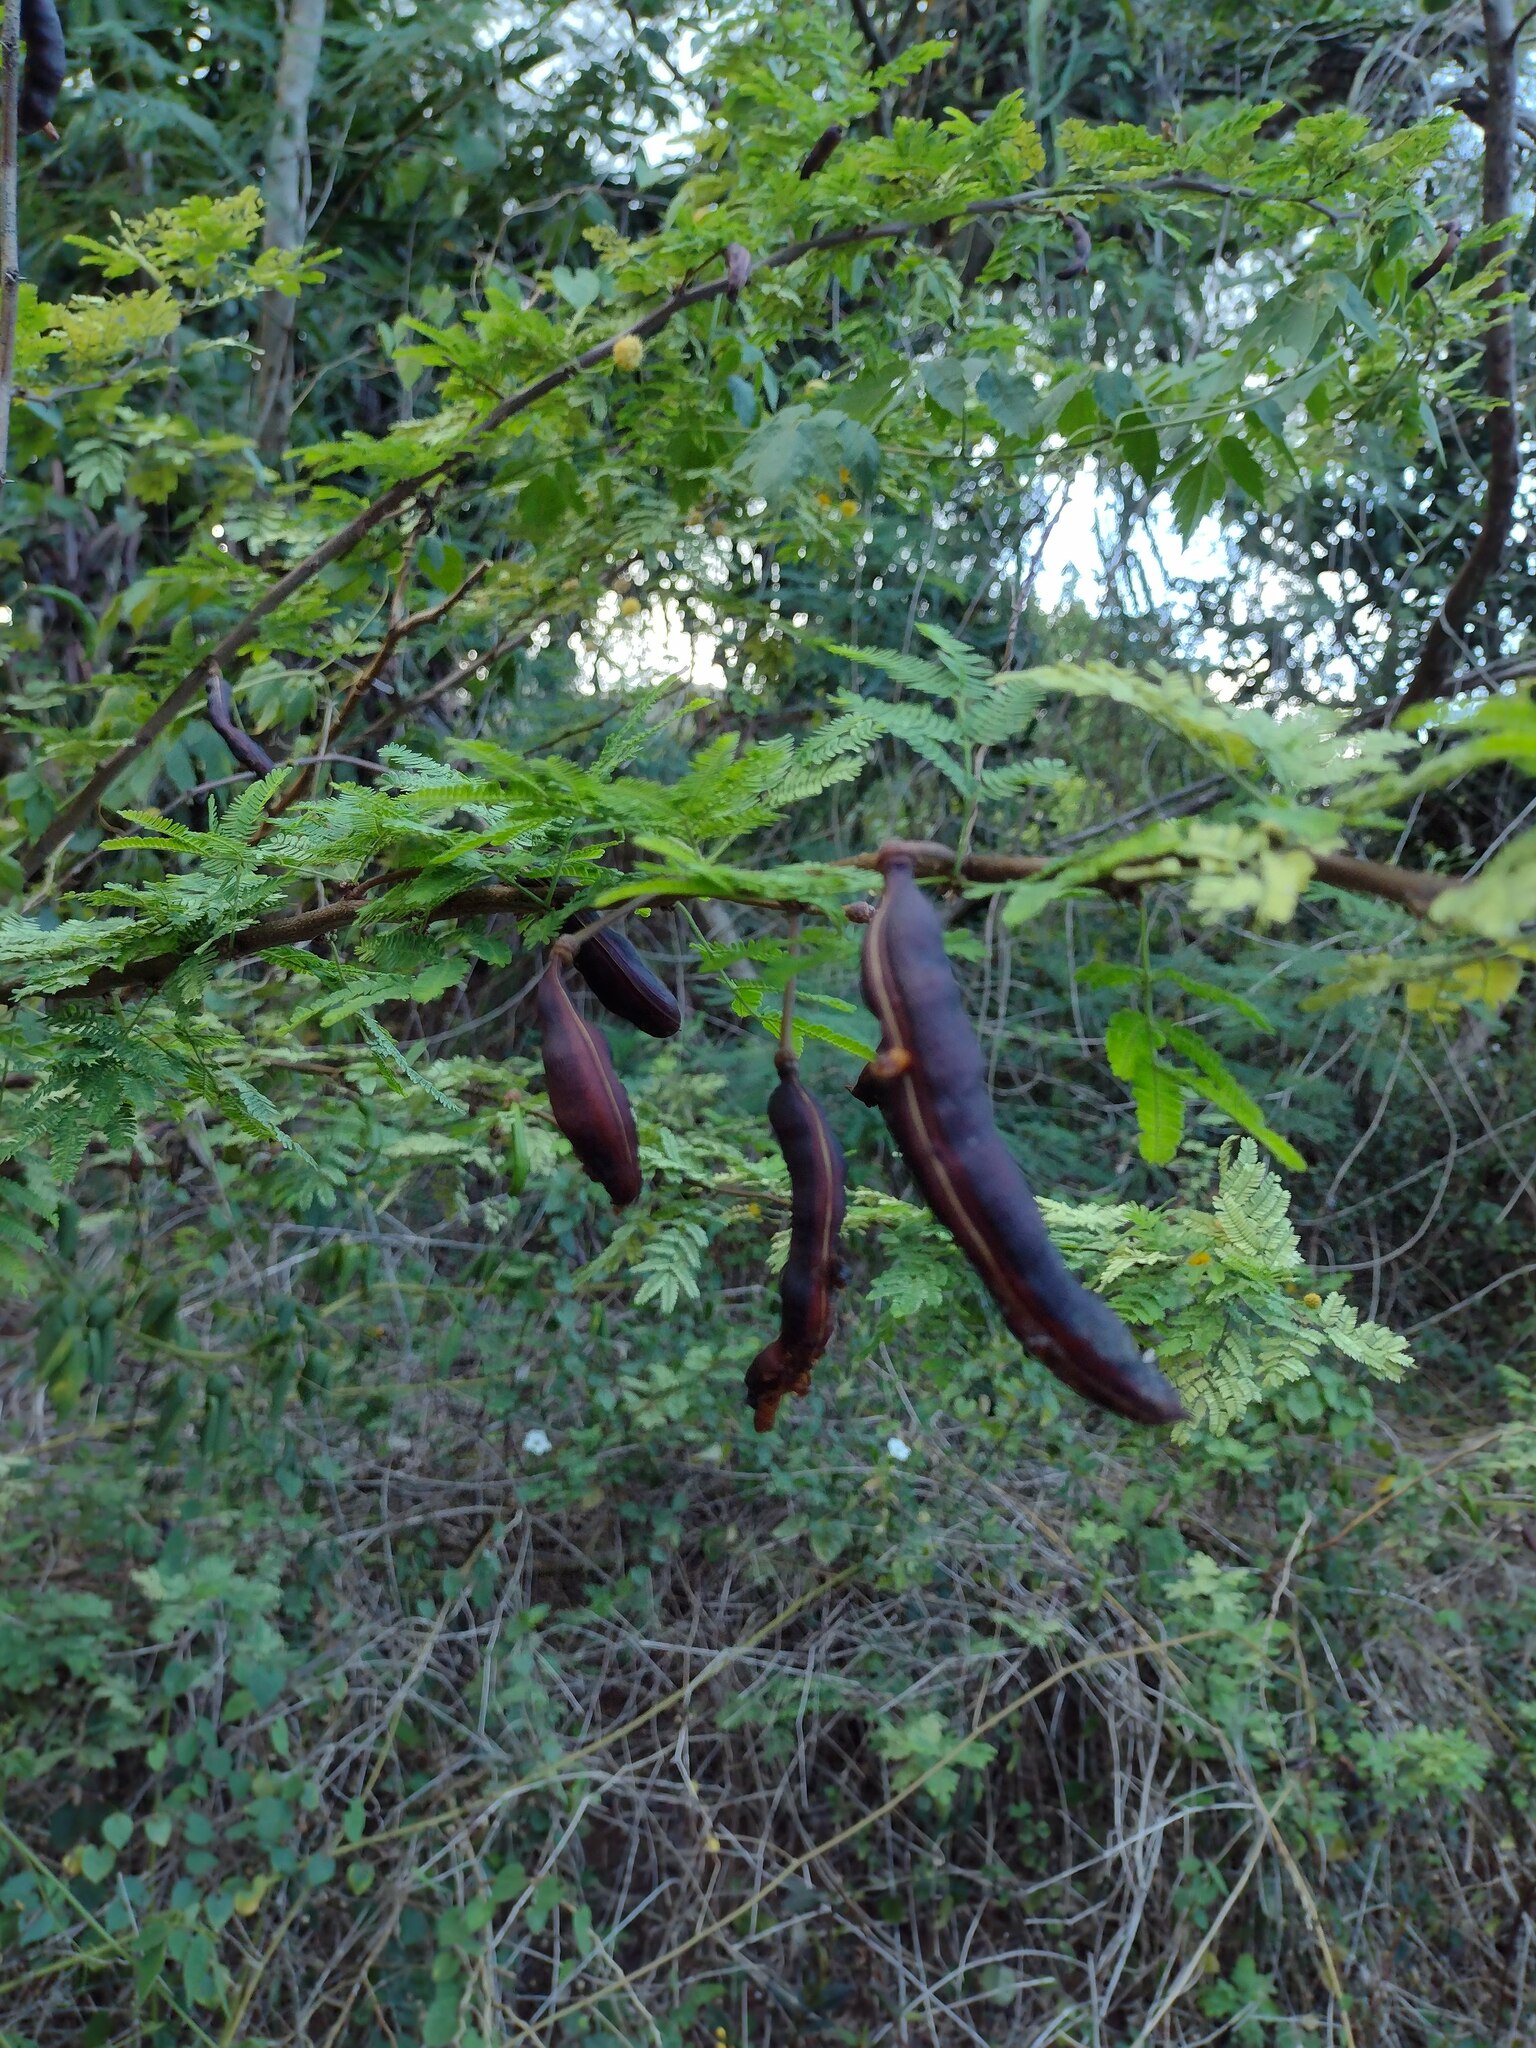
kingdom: Plantae
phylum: Tracheophyta
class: Magnoliopsida
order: Fabales
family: Fabaceae
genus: Vachellia
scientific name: Vachellia farnesiana
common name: Sweet acacia
